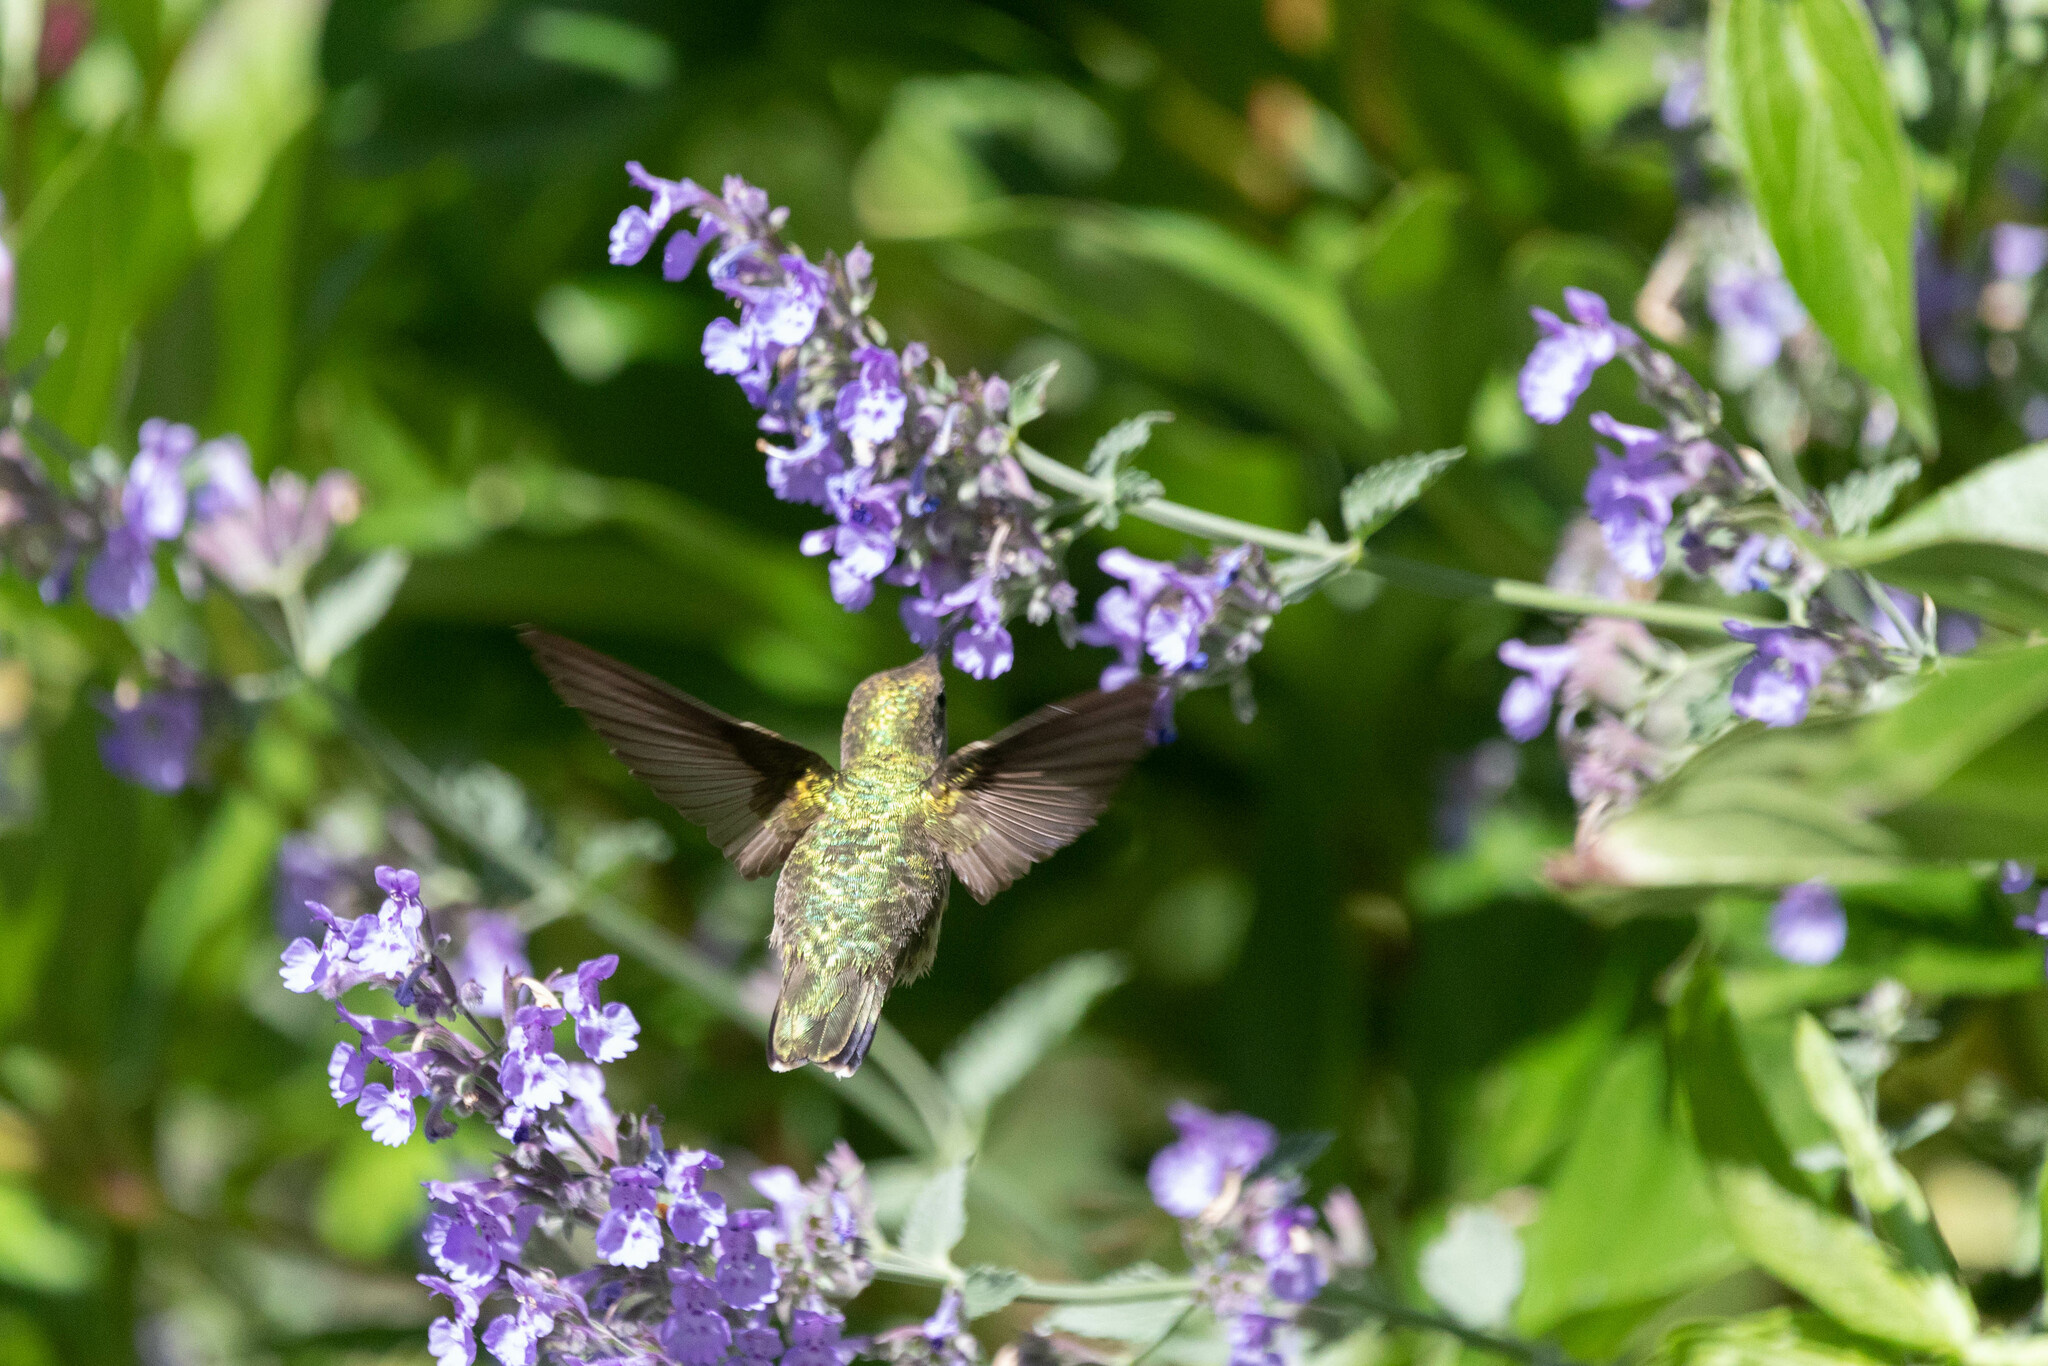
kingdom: Animalia
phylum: Chordata
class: Aves
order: Apodiformes
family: Trochilidae
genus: Archilochus
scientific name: Archilochus colubris
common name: Ruby-throated hummingbird
